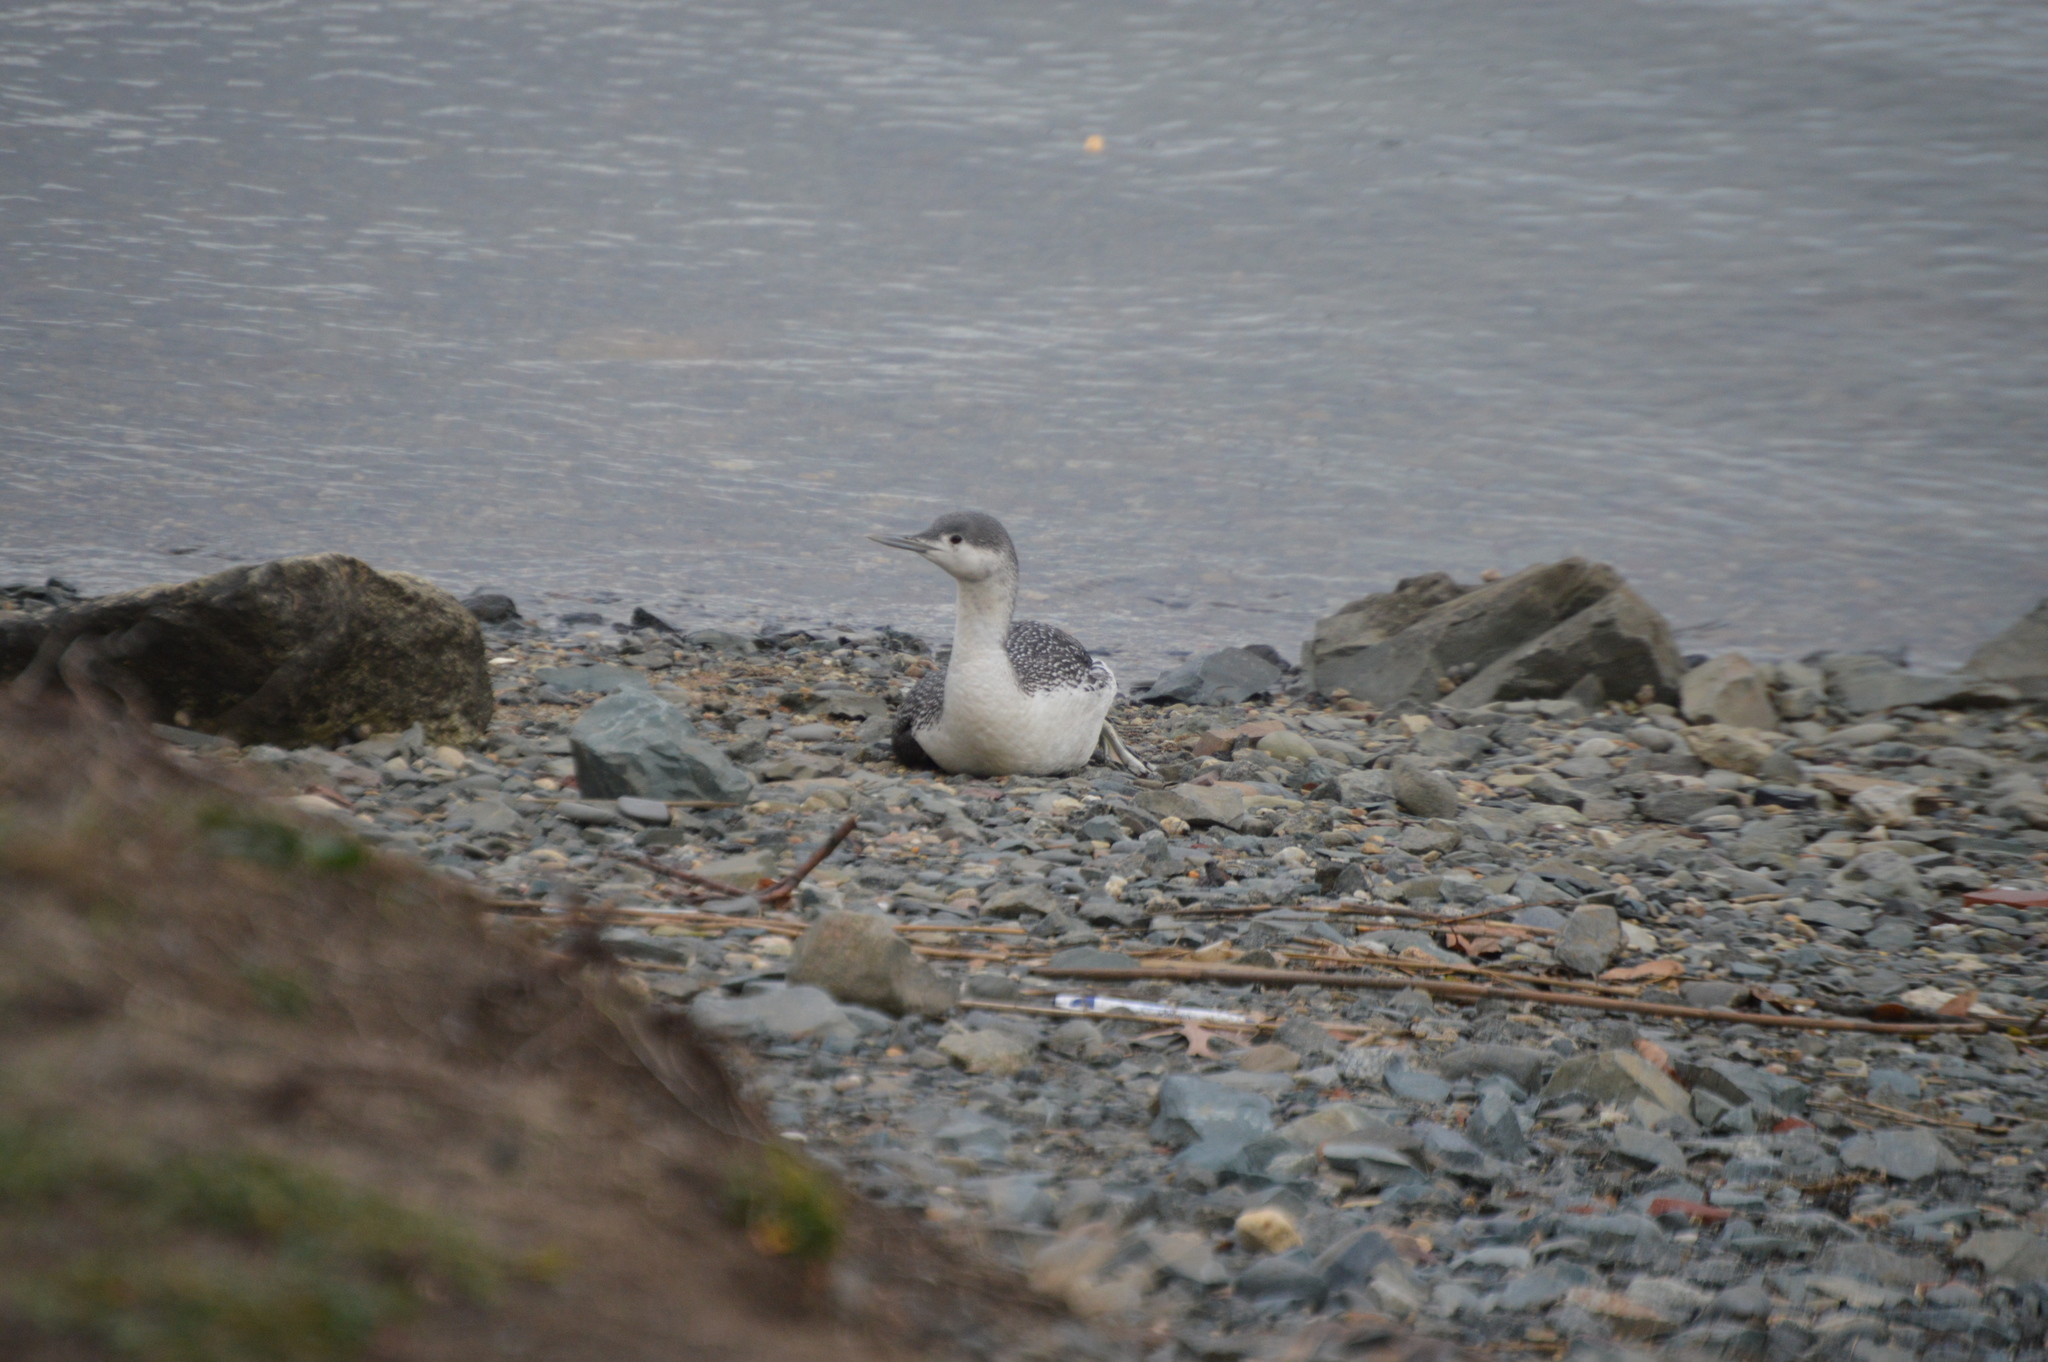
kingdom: Animalia
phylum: Chordata
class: Aves
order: Gaviiformes
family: Gaviidae
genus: Gavia
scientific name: Gavia stellata
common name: Red-throated loon
